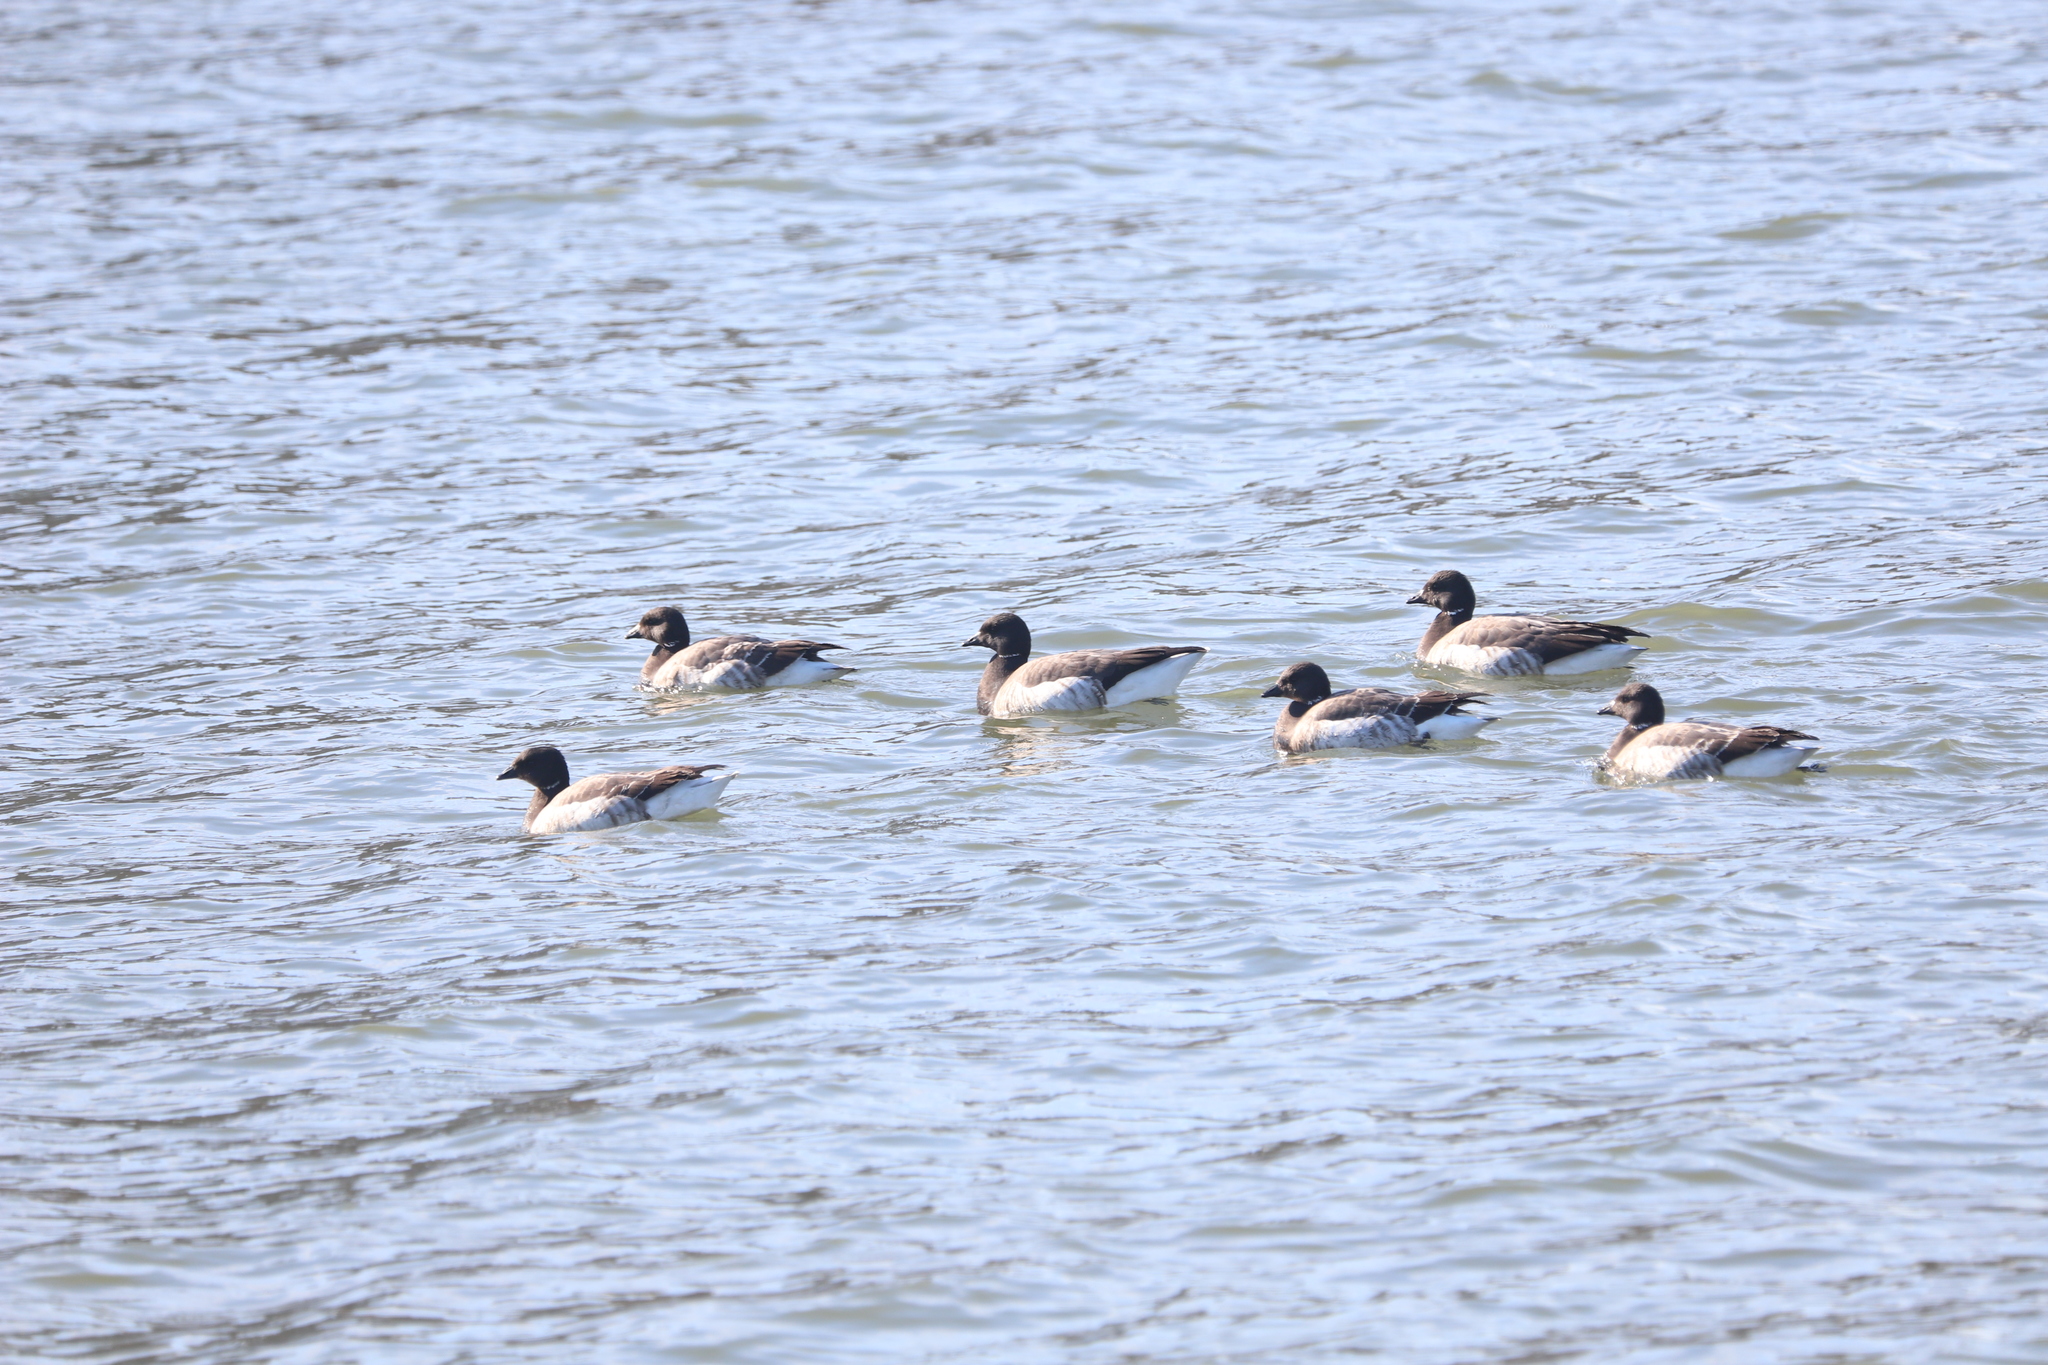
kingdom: Animalia
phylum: Chordata
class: Aves
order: Anseriformes
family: Anatidae
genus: Branta
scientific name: Branta bernicla
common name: Brant goose
